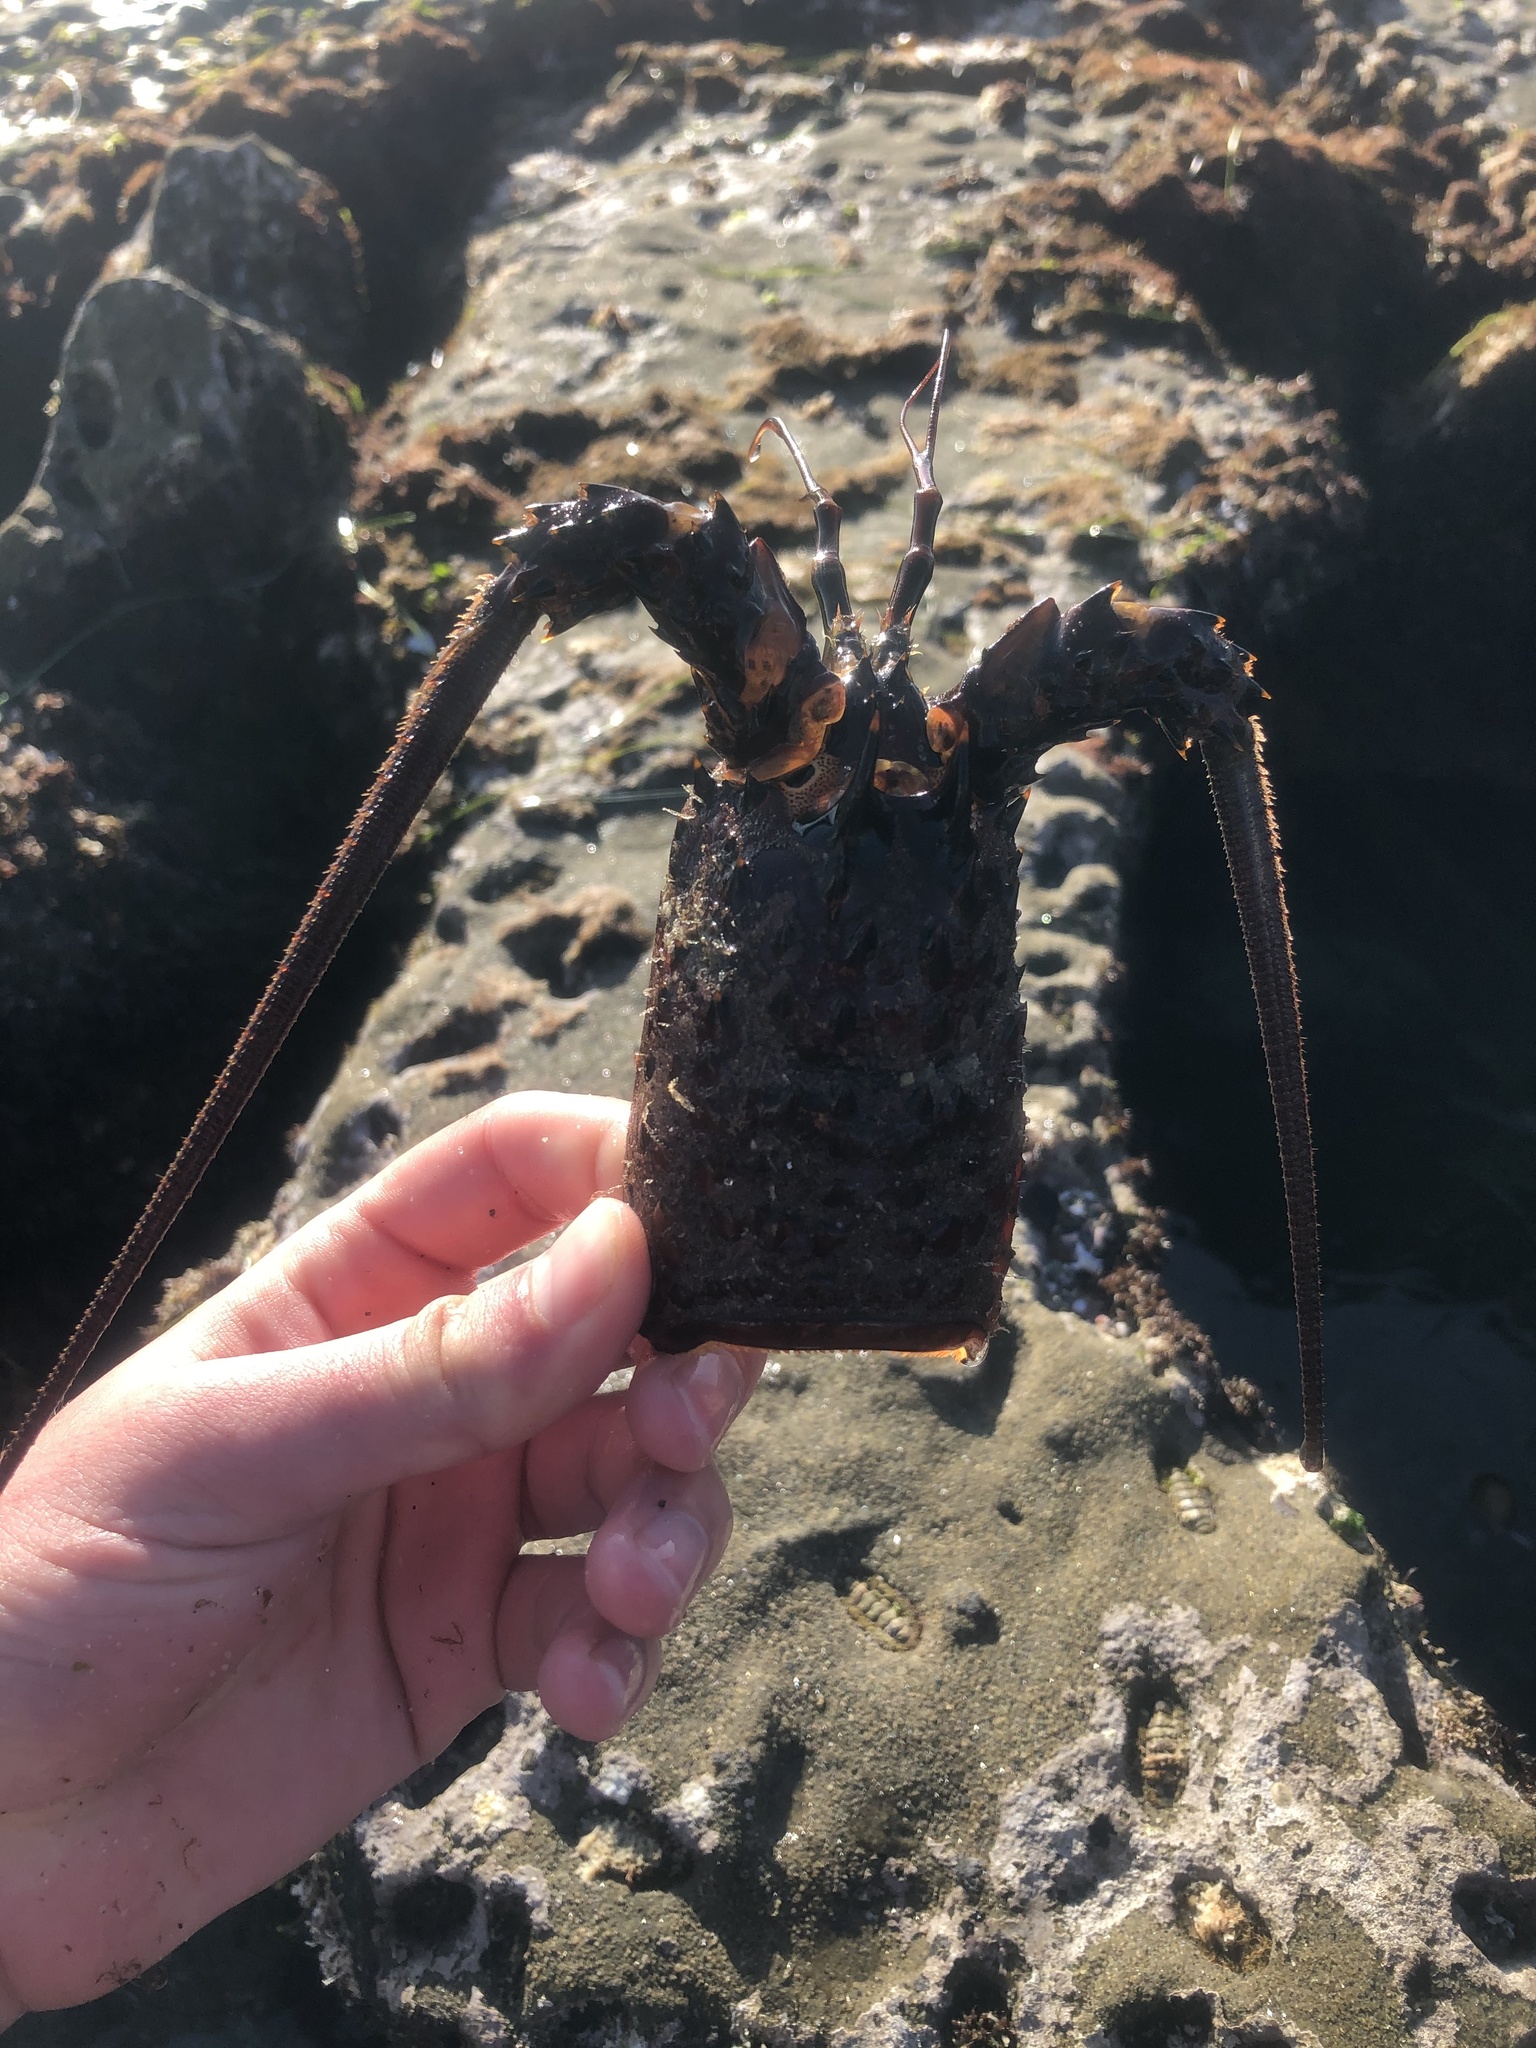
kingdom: Animalia
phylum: Arthropoda
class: Malacostraca
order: Decapoda
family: Palinuridae
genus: Panulirus
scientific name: Panulirus interruptus
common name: California spiny lobster
